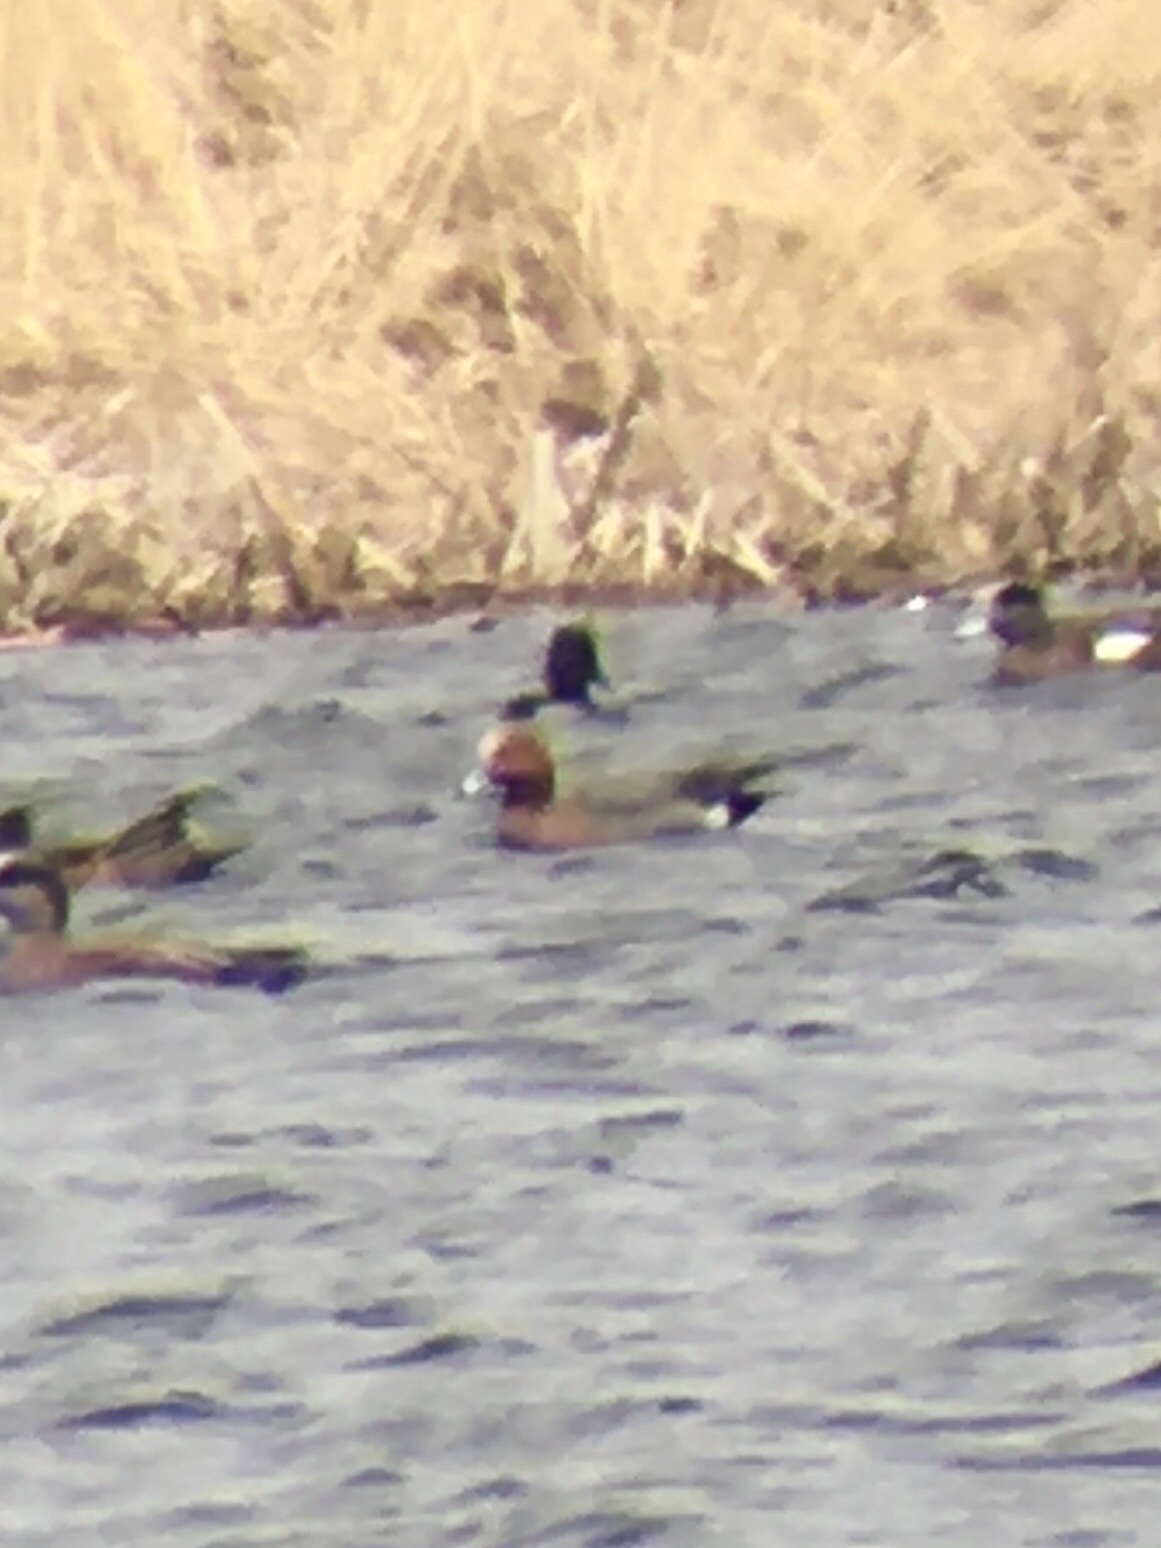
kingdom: Animalia
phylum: Chordata
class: Aves
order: Anseriformes
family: Anatidae
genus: Mareca
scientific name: Mareca penelope
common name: Eurasian wigeon
